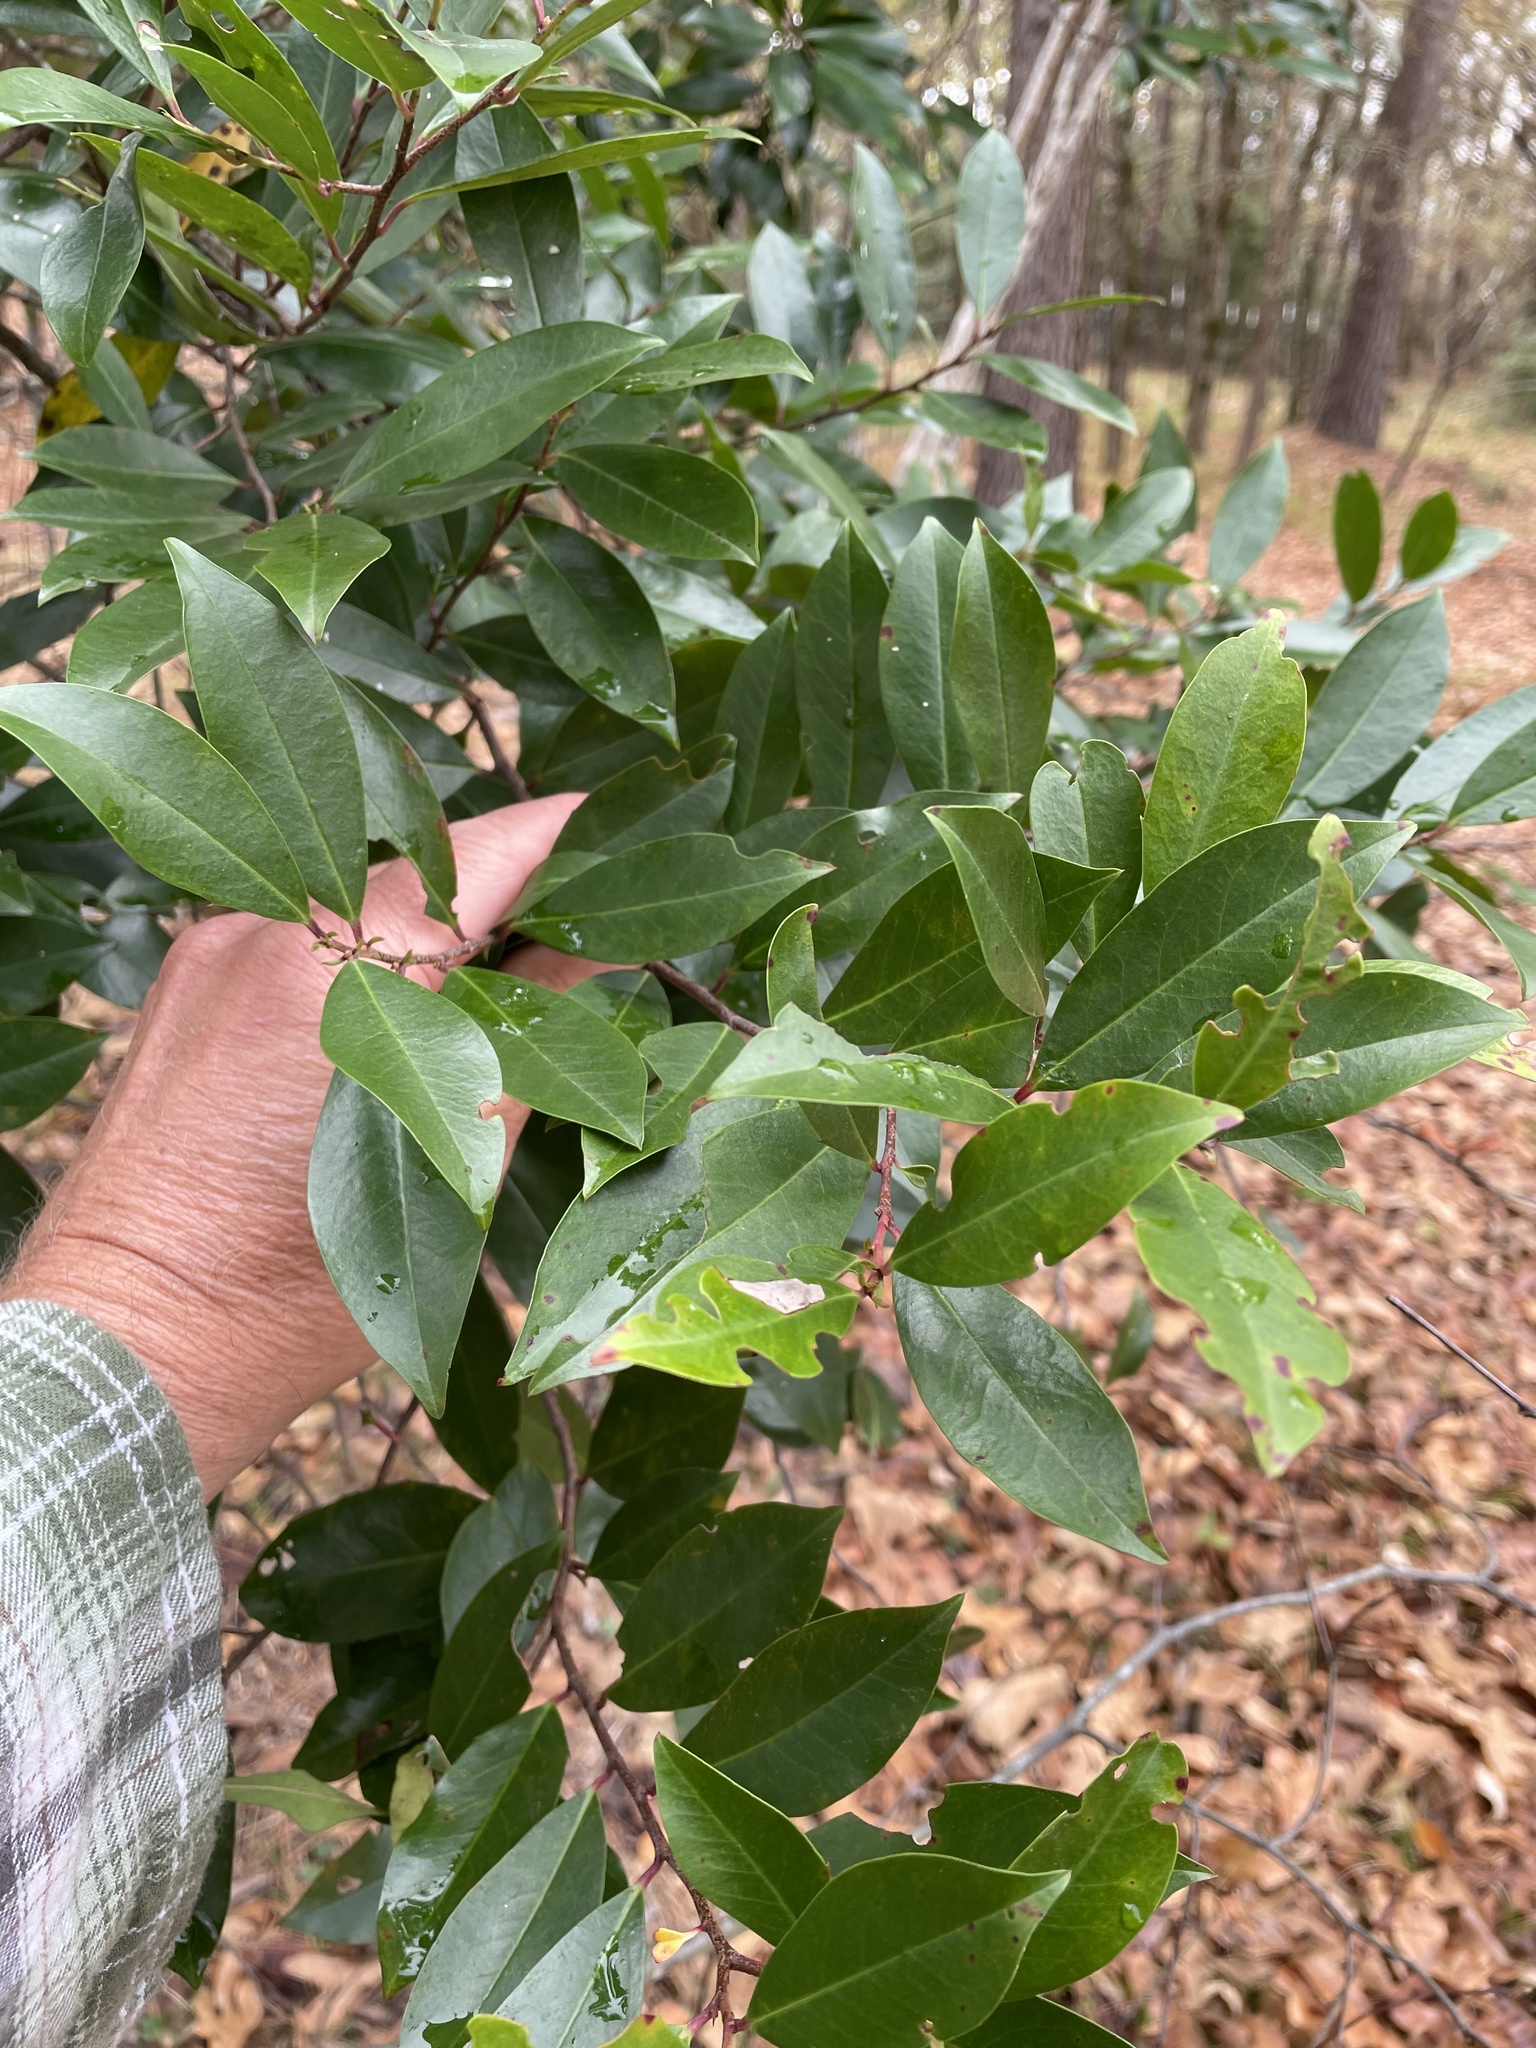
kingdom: Plantae
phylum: Tracheophyta
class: Magnoliopsida
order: Rosales
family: Rosaceae
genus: Prunus
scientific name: Prunus caroliniana
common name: Carolina laurel cherry
